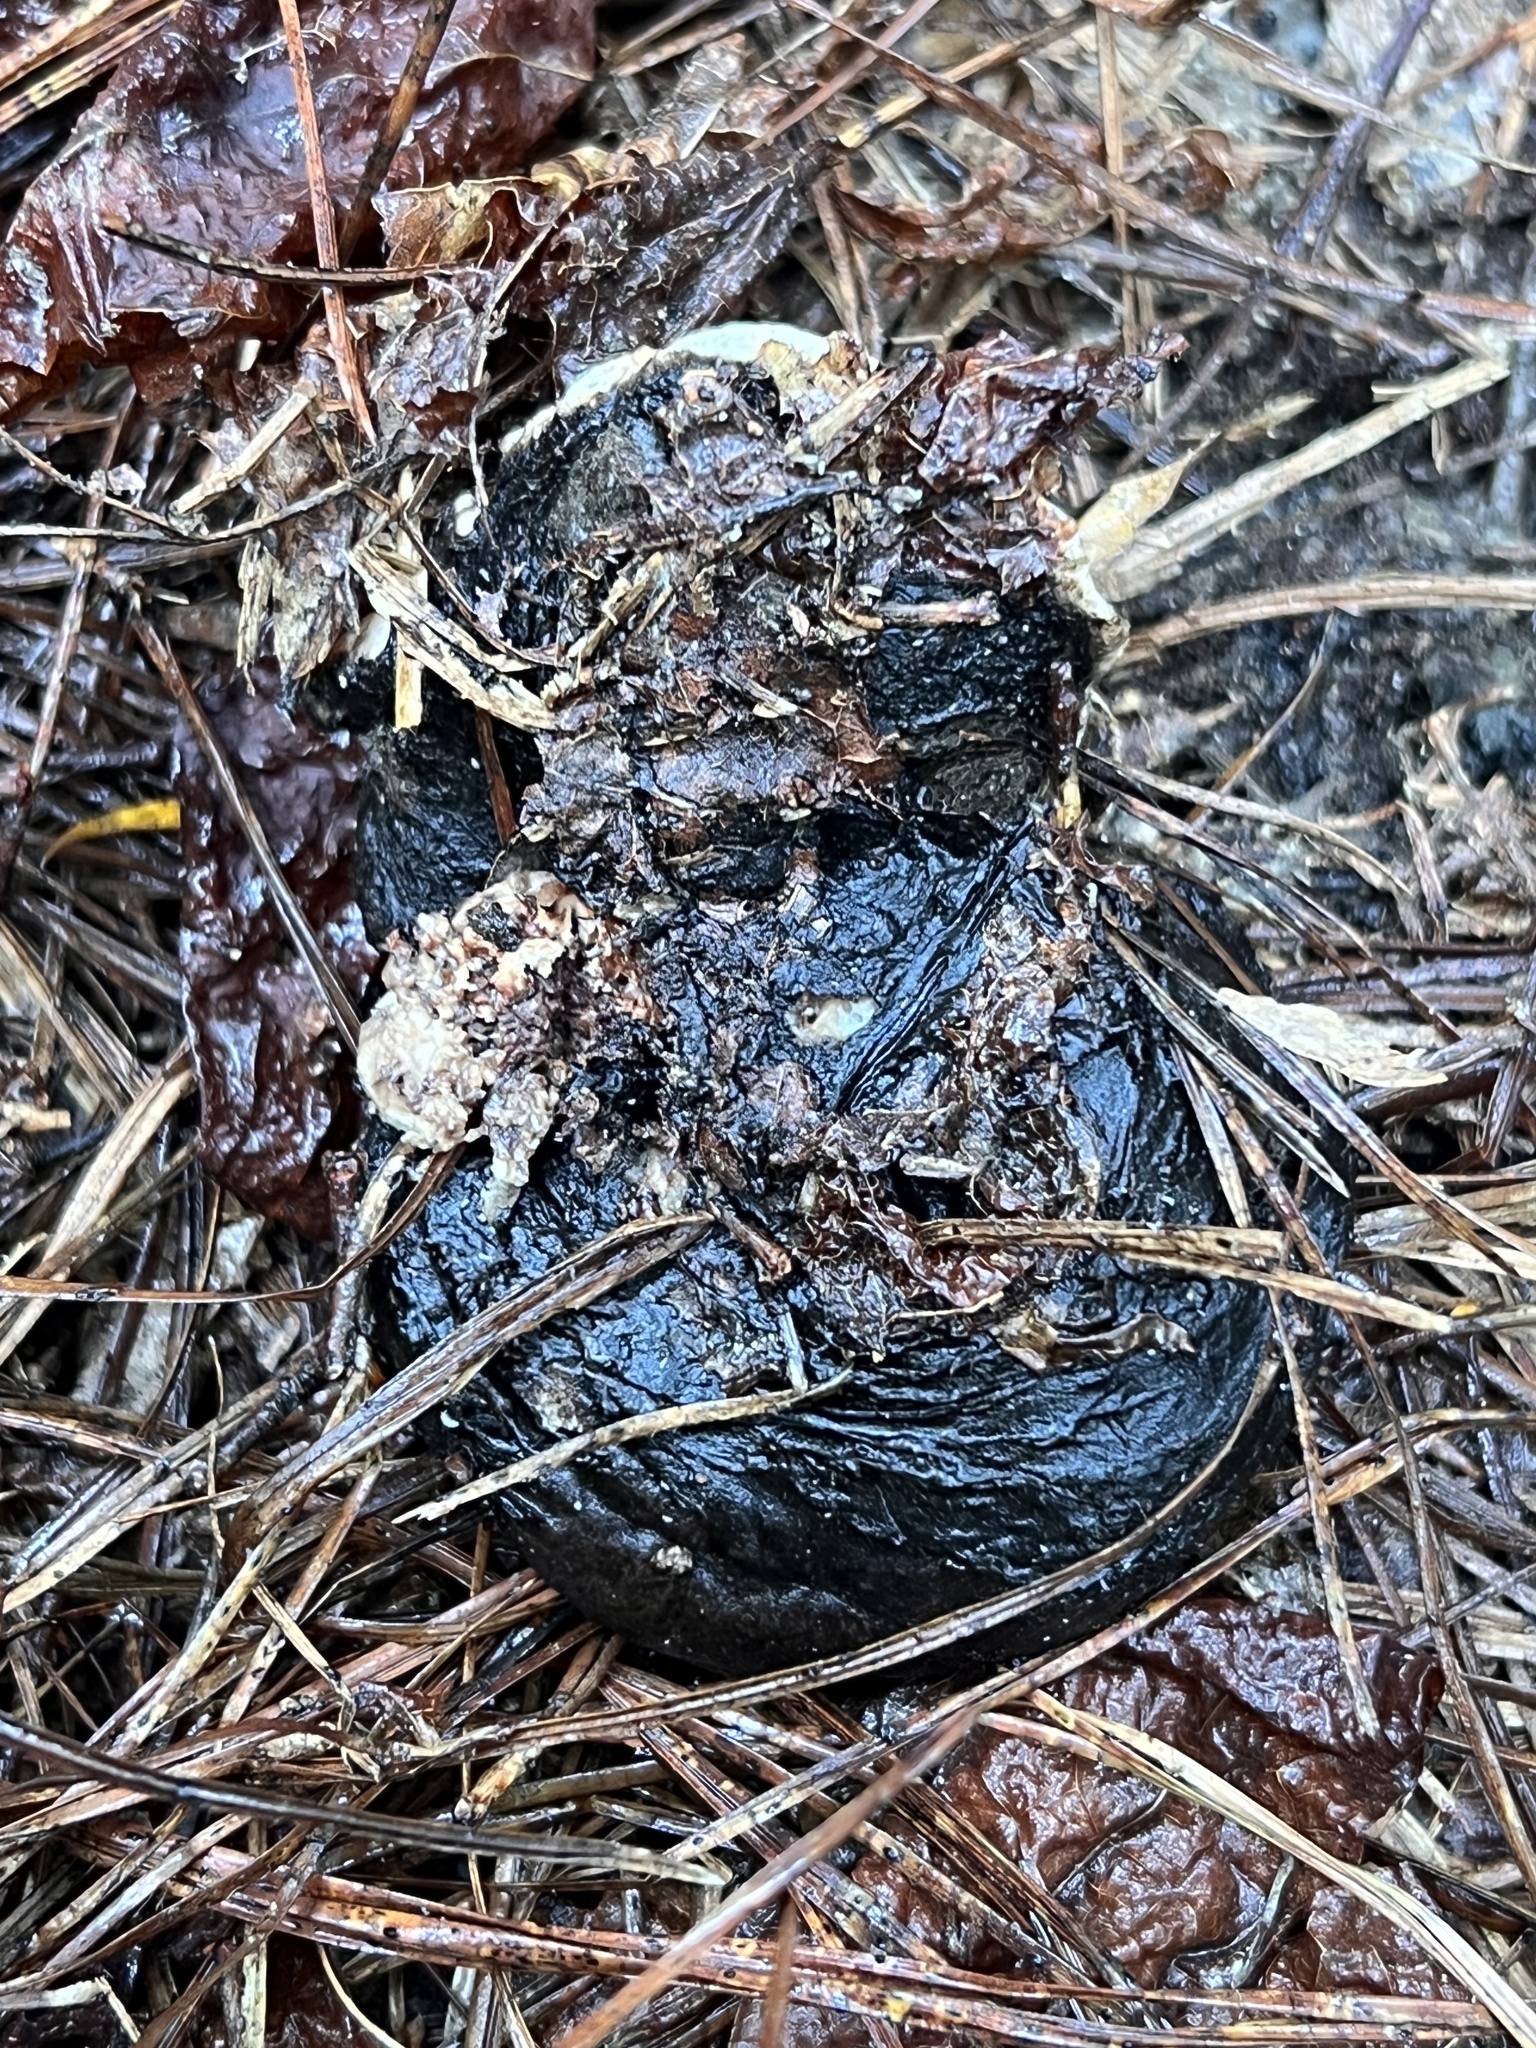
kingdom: Fungi
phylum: Ascomycota
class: Pezizomycetes
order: Pezizales
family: Chorioactidaceae
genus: Wolfina
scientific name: Wolfina aurantiopsis
